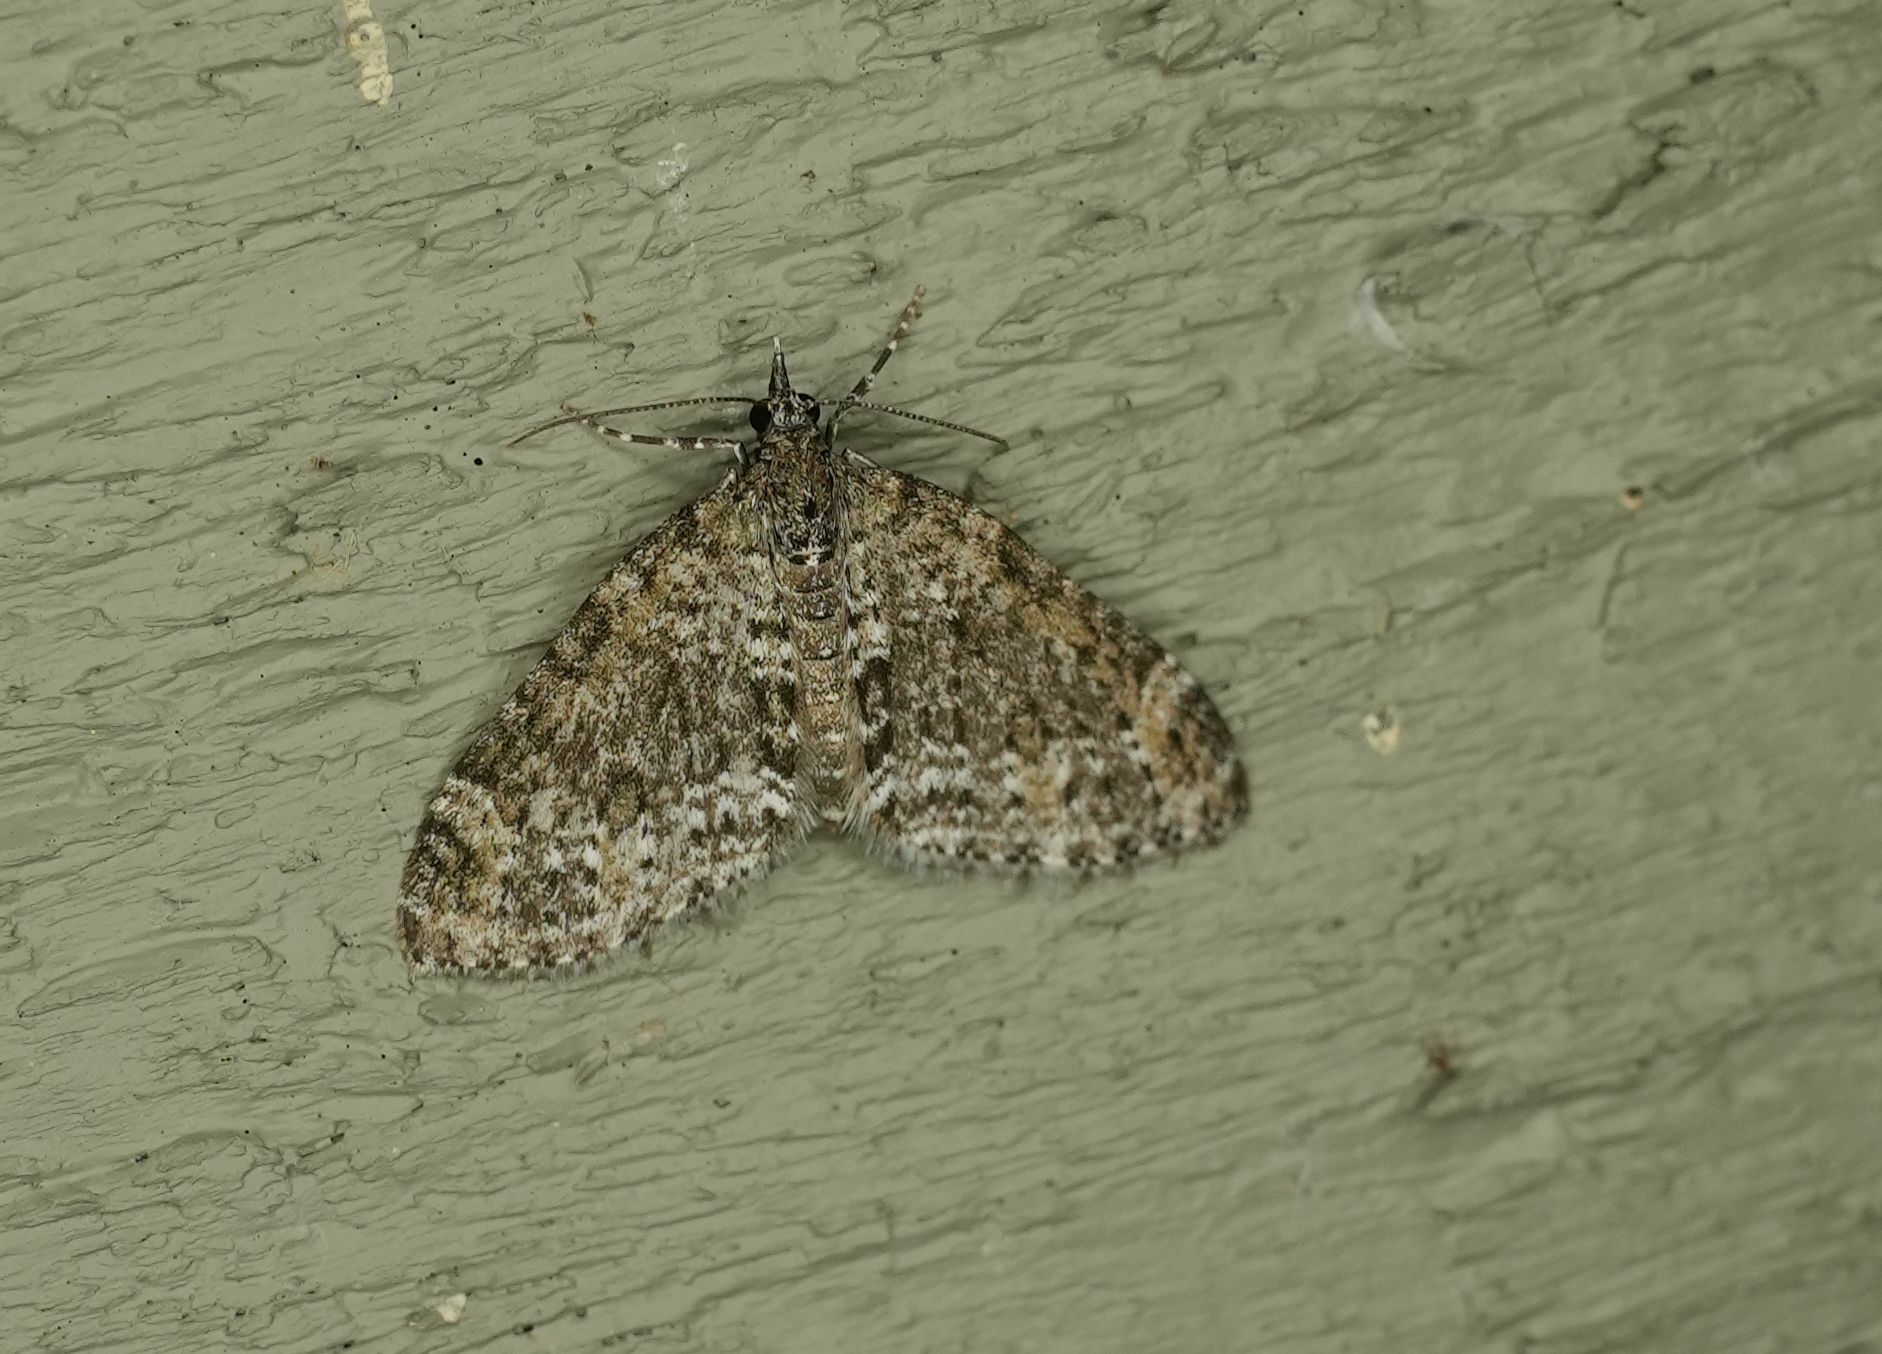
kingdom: Animalia
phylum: Arthropoda
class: Insecta
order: Lepidoptera
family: Geometridae
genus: Acasis
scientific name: Acasis viridata
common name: Olive-and-black carpet moth
